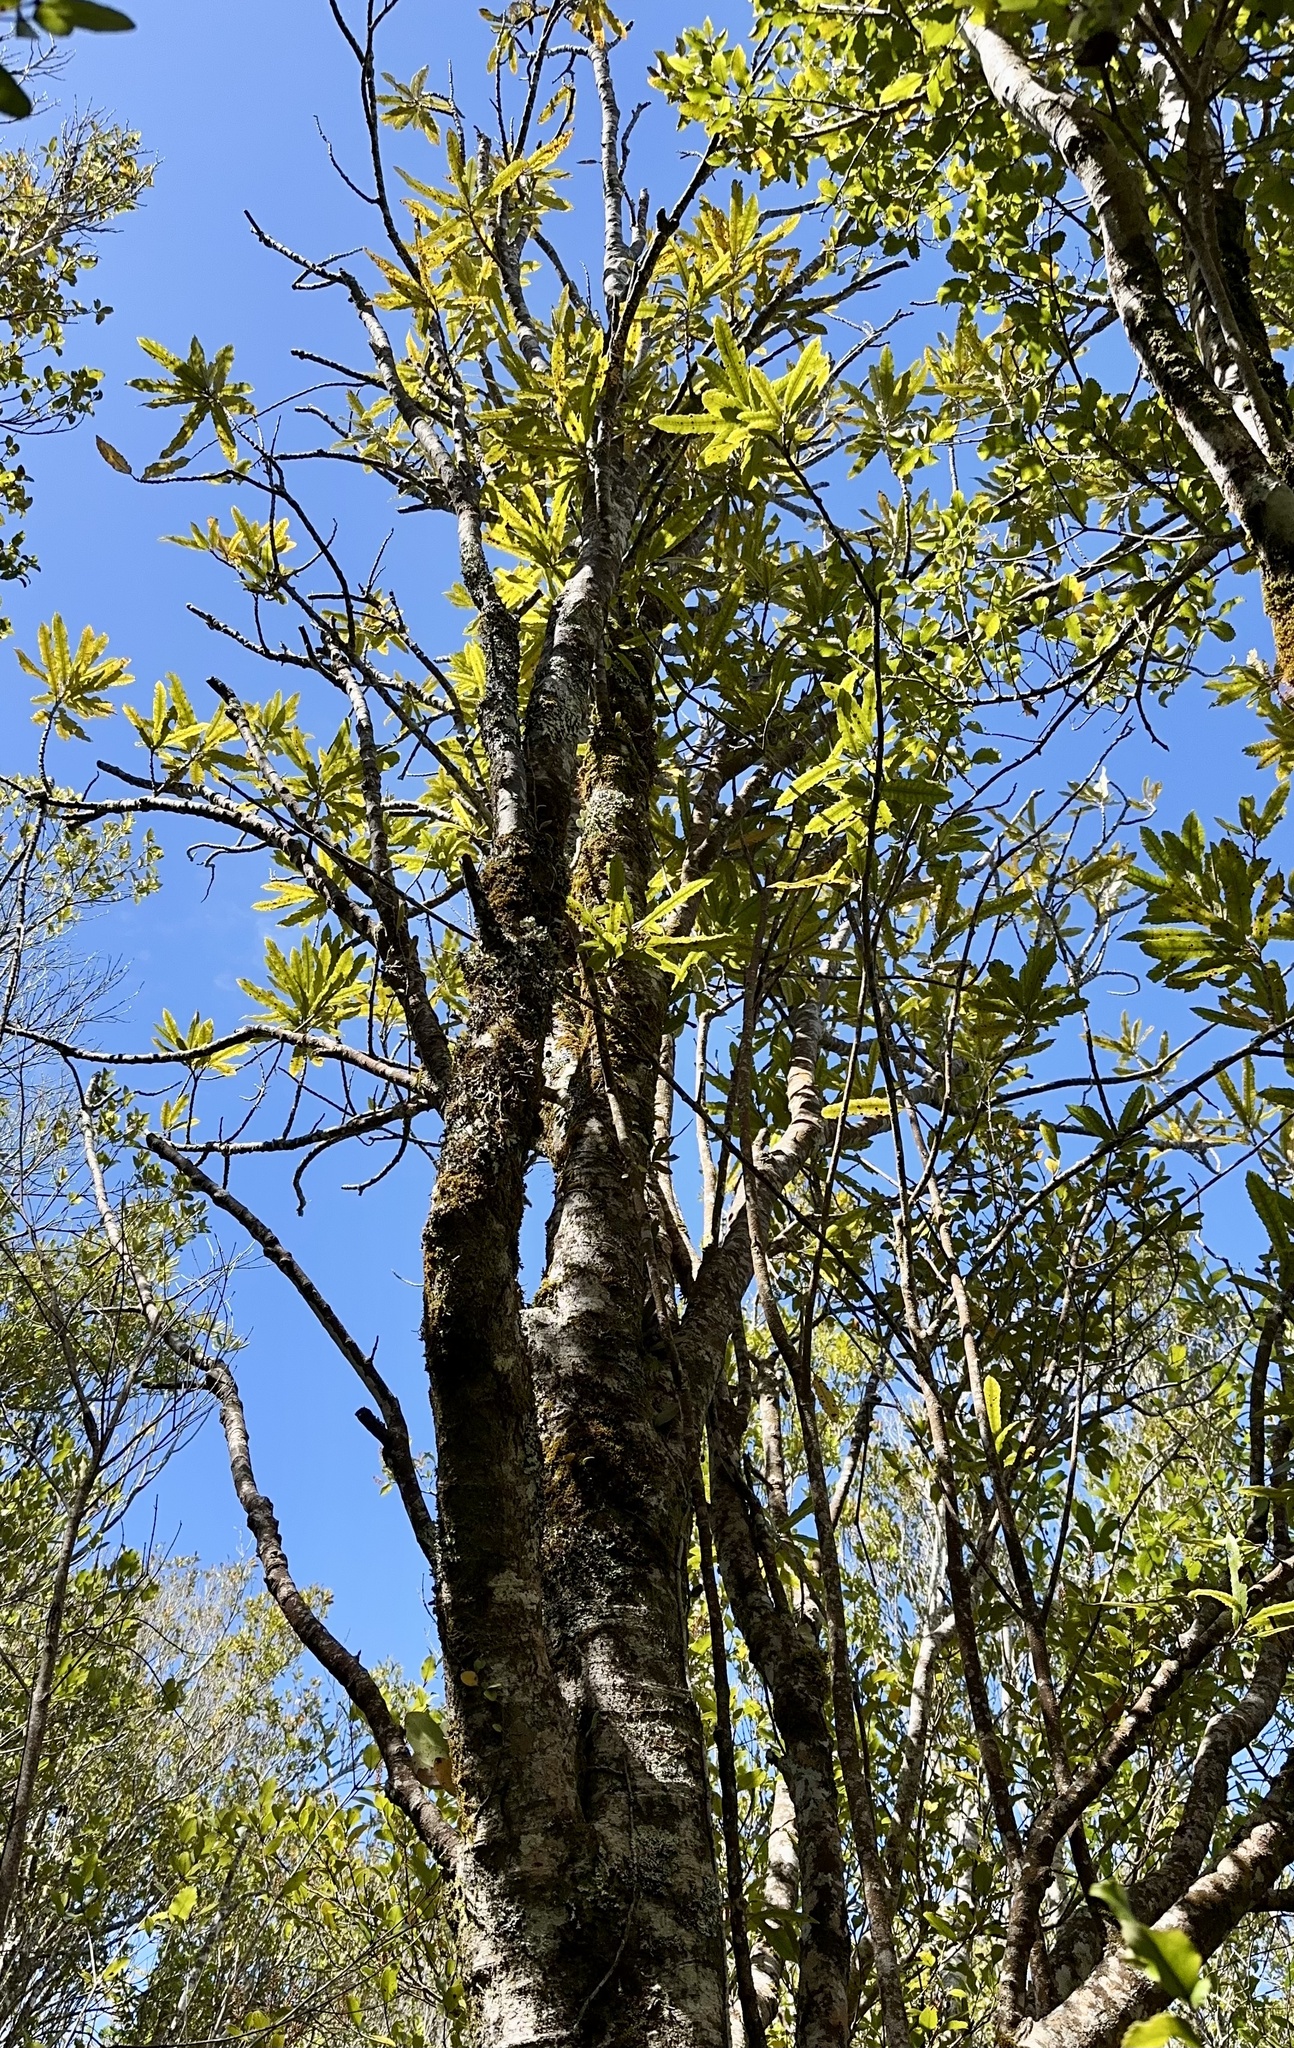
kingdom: Plantae
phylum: Tracheophyta
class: Magnoliopsida
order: Proteales
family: Proteaceae
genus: Knightia
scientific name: Knightia excelsa
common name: New zealand-honeysuckle
